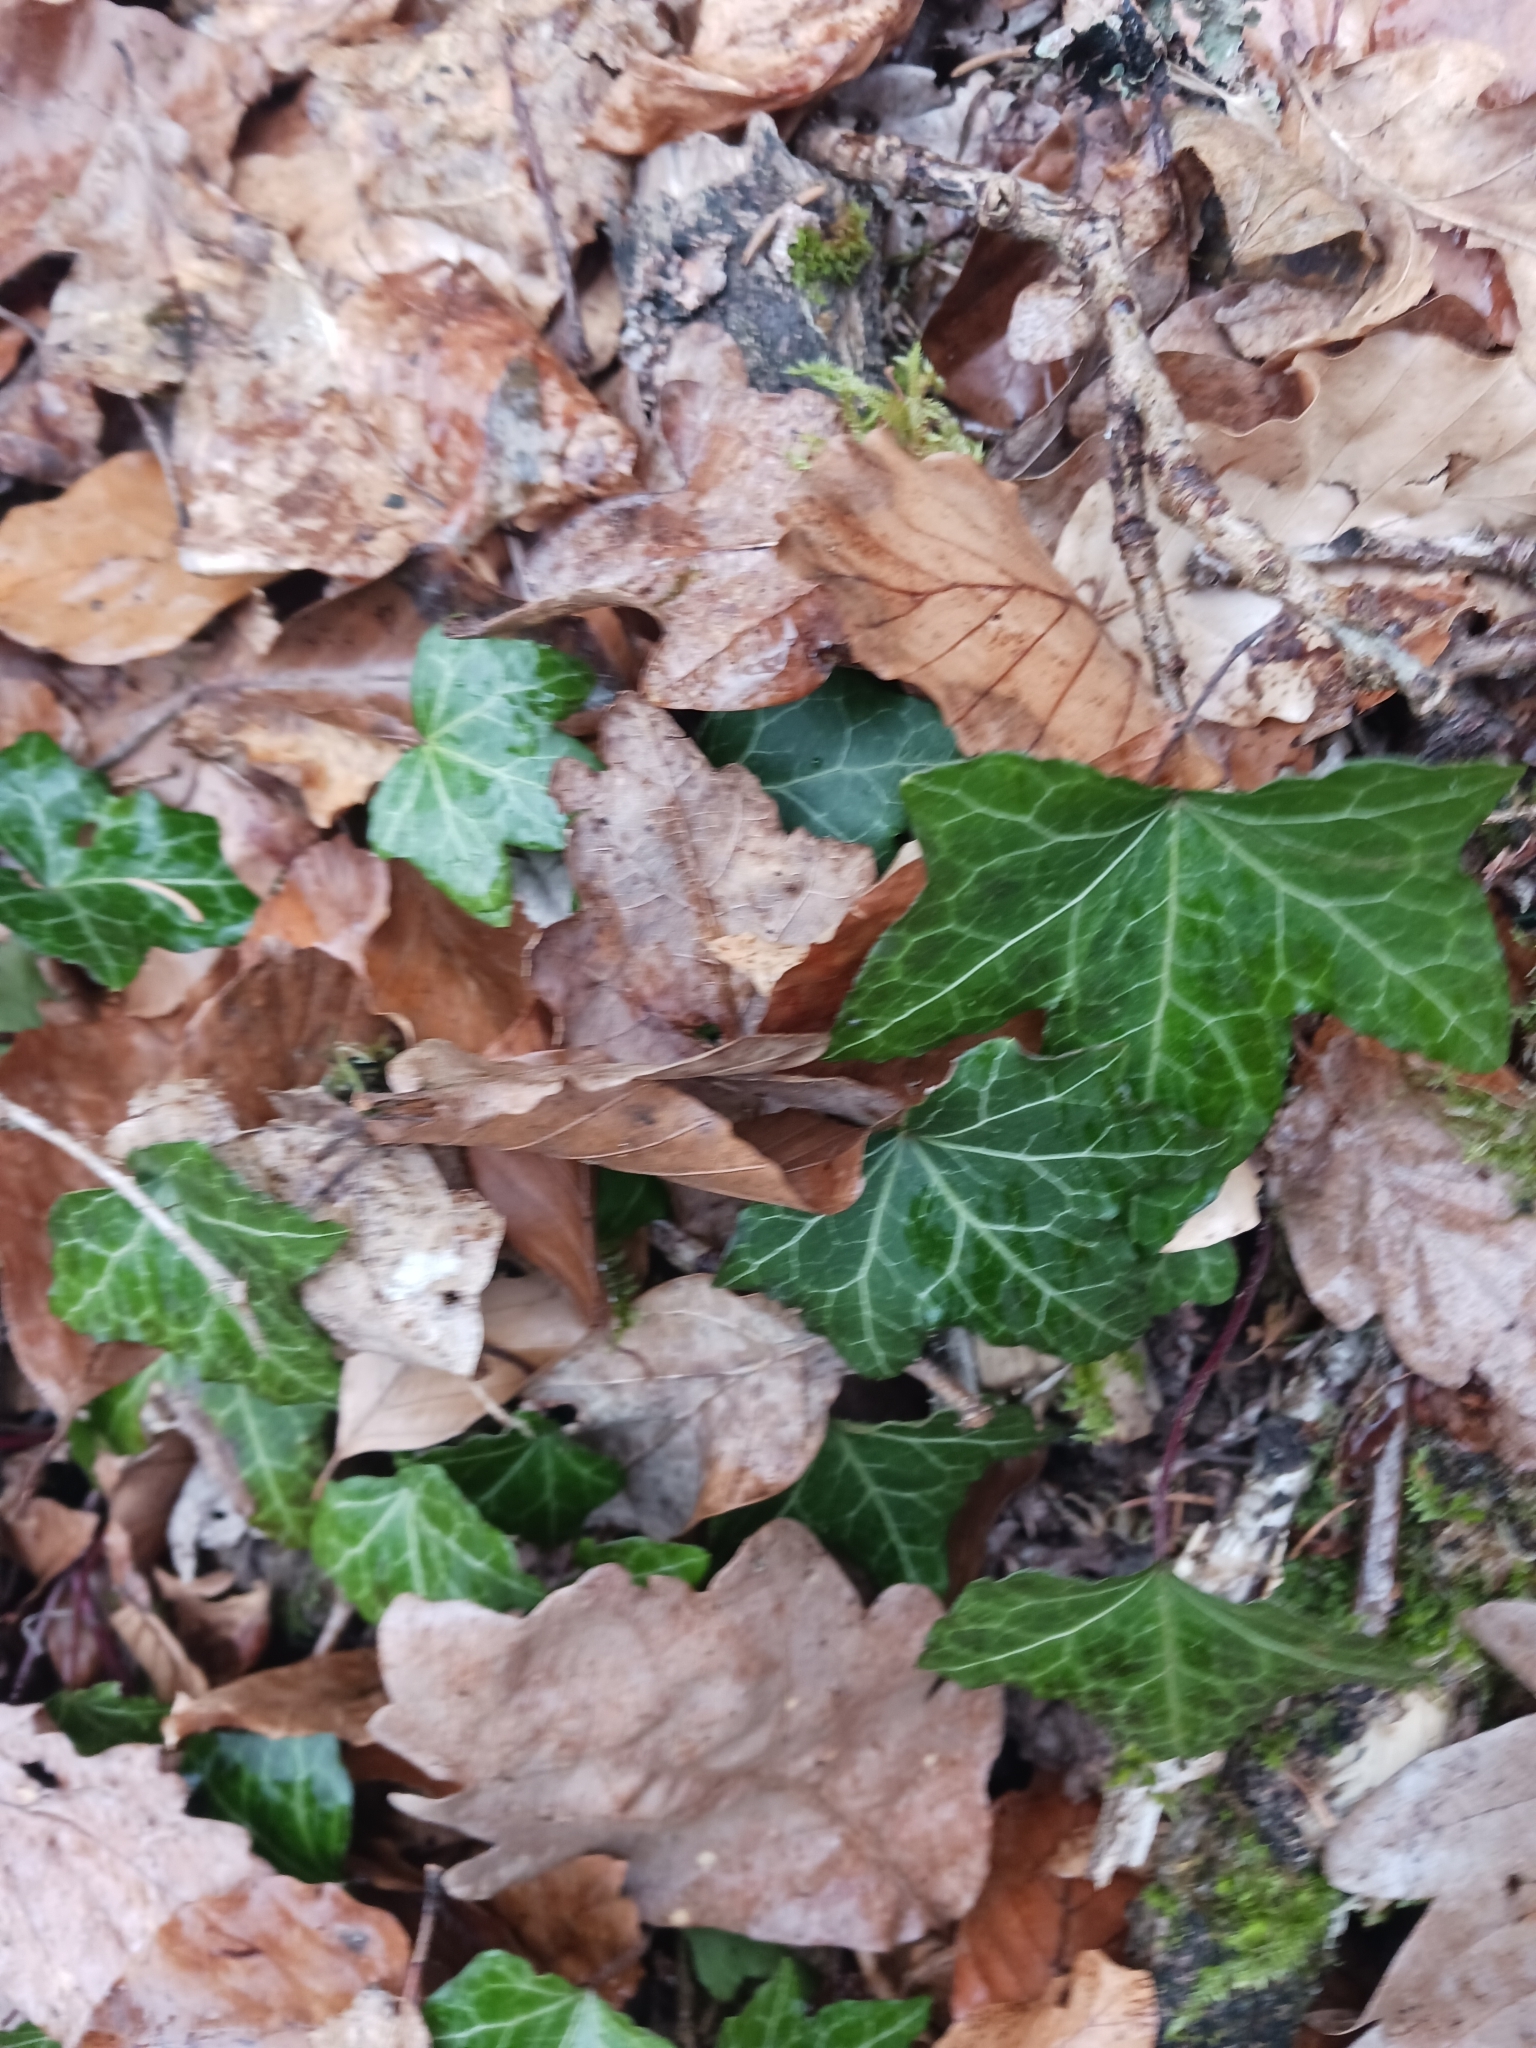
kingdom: Plantae
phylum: Tracheophyta
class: Magnoliopsida
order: Apiales
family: Araliaceae
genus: Hedera
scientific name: Hedera helix
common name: Ivy
